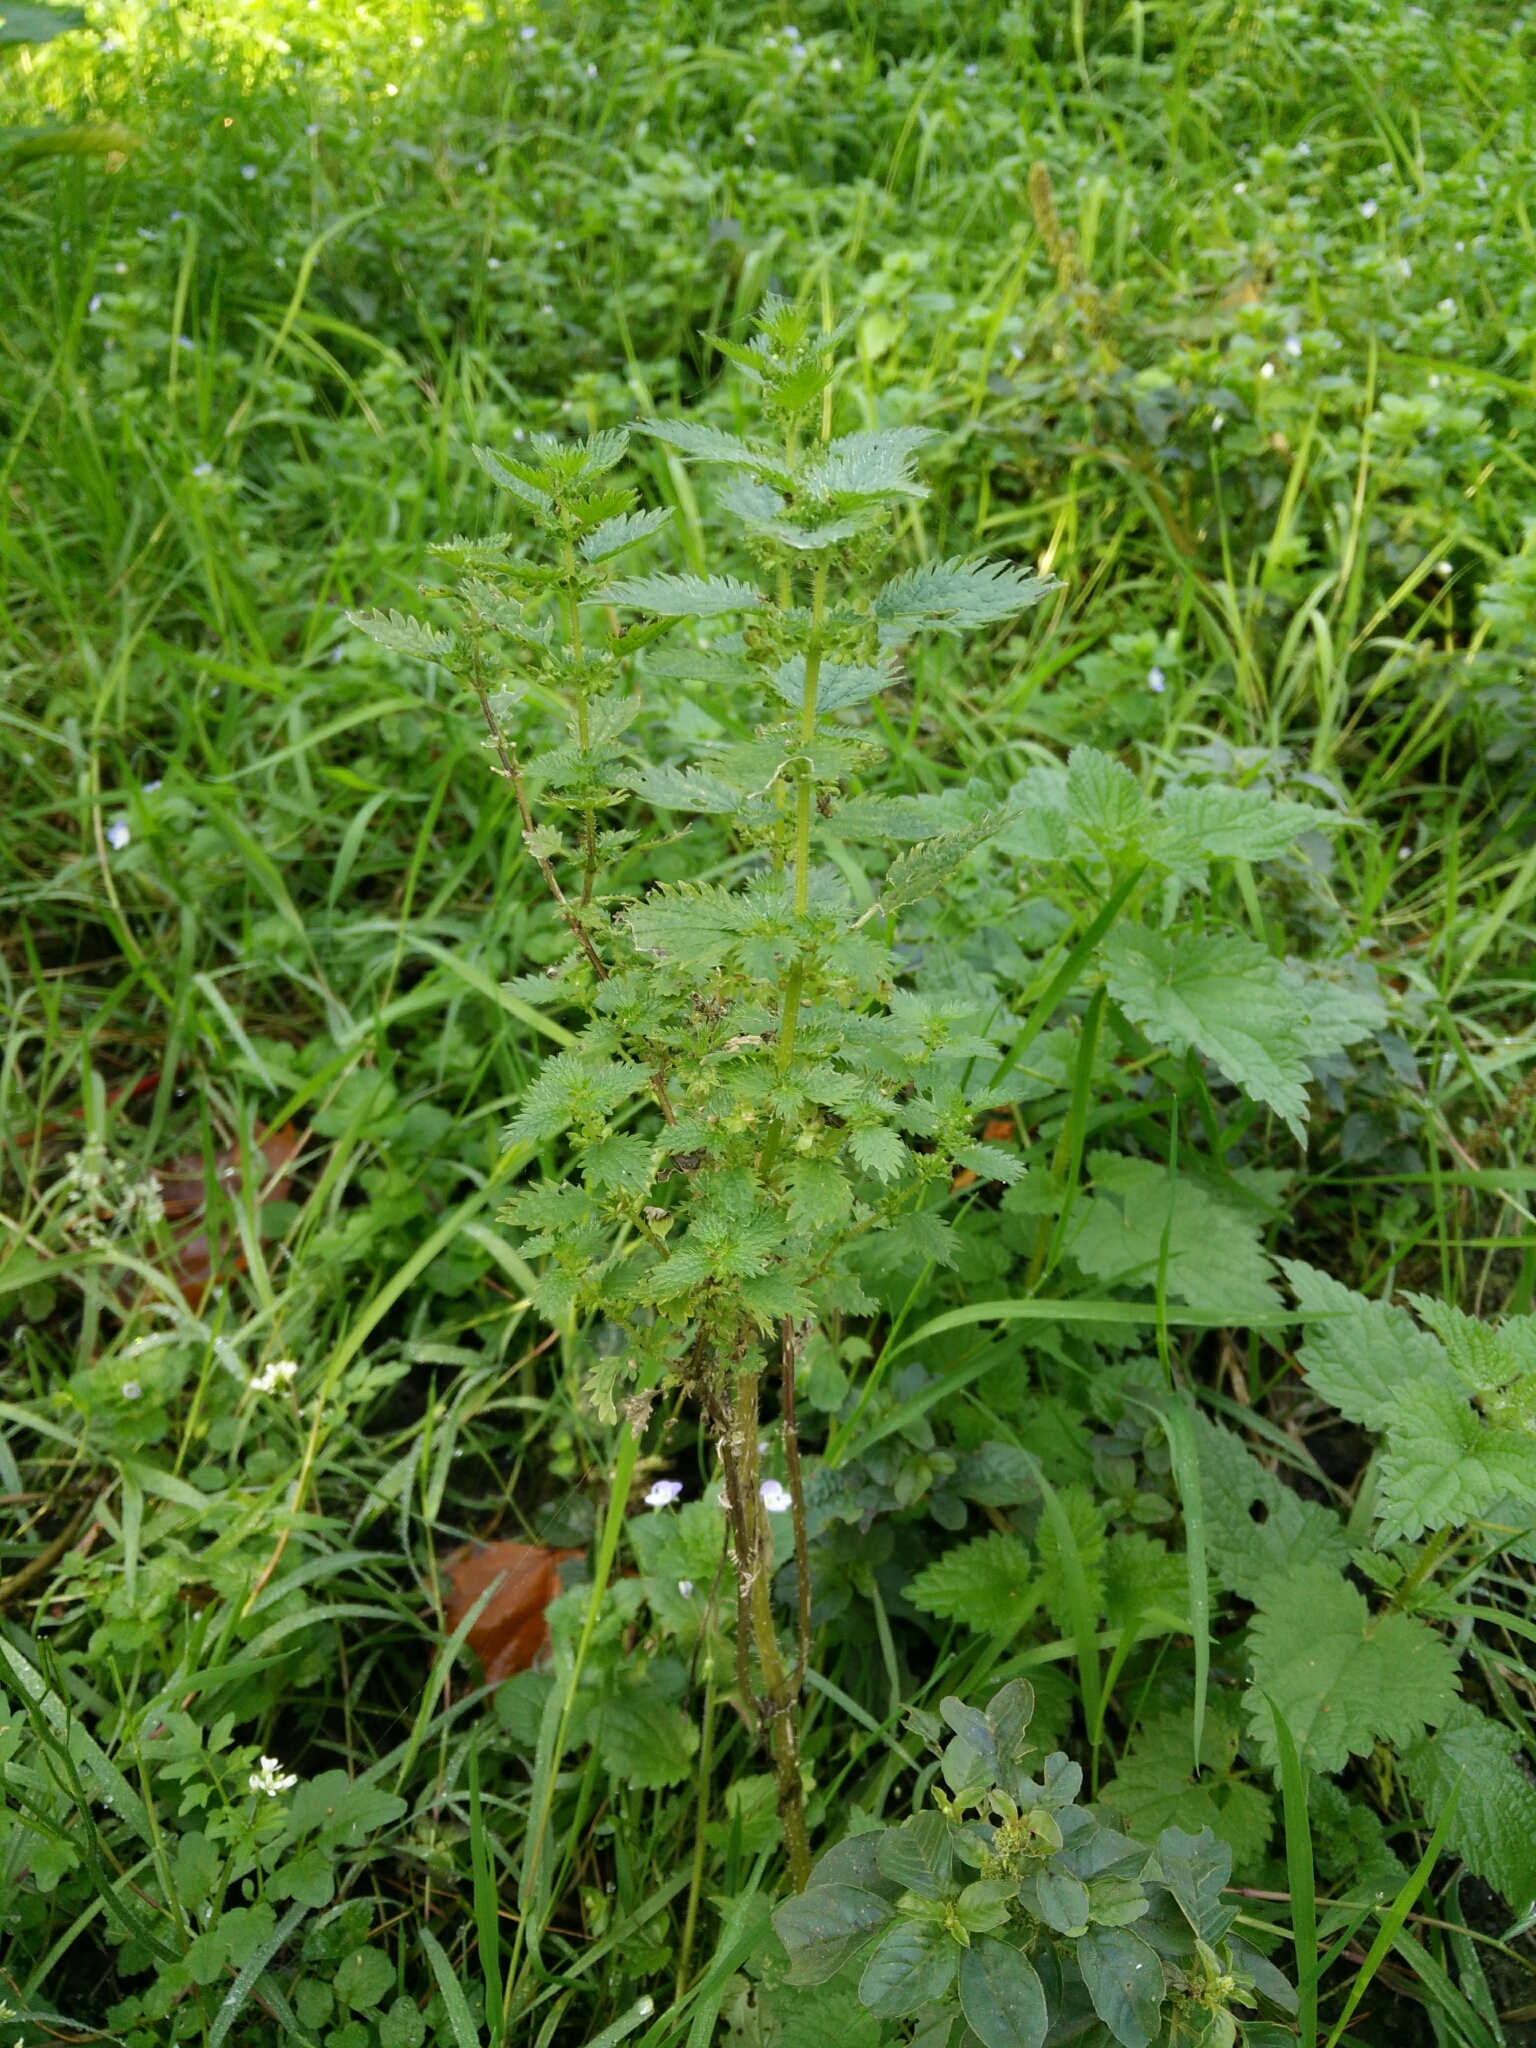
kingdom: Plantae
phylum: Tracheophyta
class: Magnoliopsida
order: Rosales
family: Urticaceae
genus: Urtica
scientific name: Urtica urens
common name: Dwarf nettle
